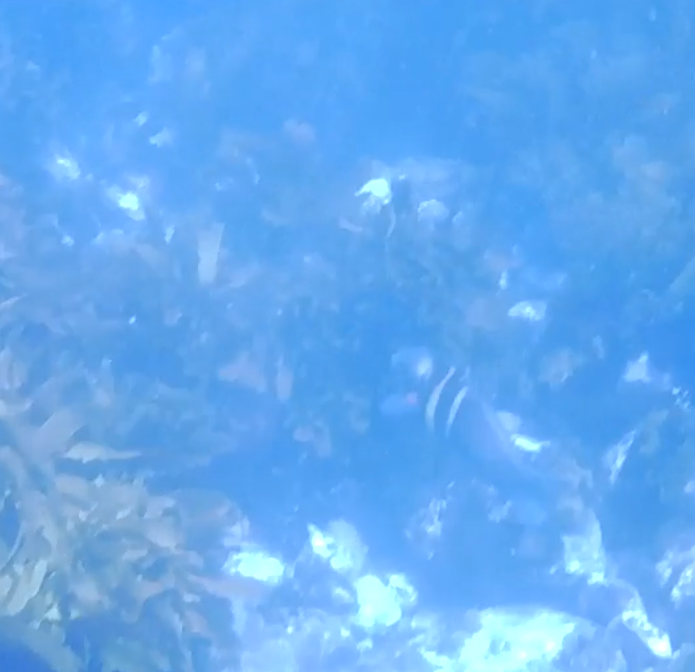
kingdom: Animalia
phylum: Chordata
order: Perciformes
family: Labridae
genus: Coris
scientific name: Coris sandeyeri
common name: Sandager's wrasse
